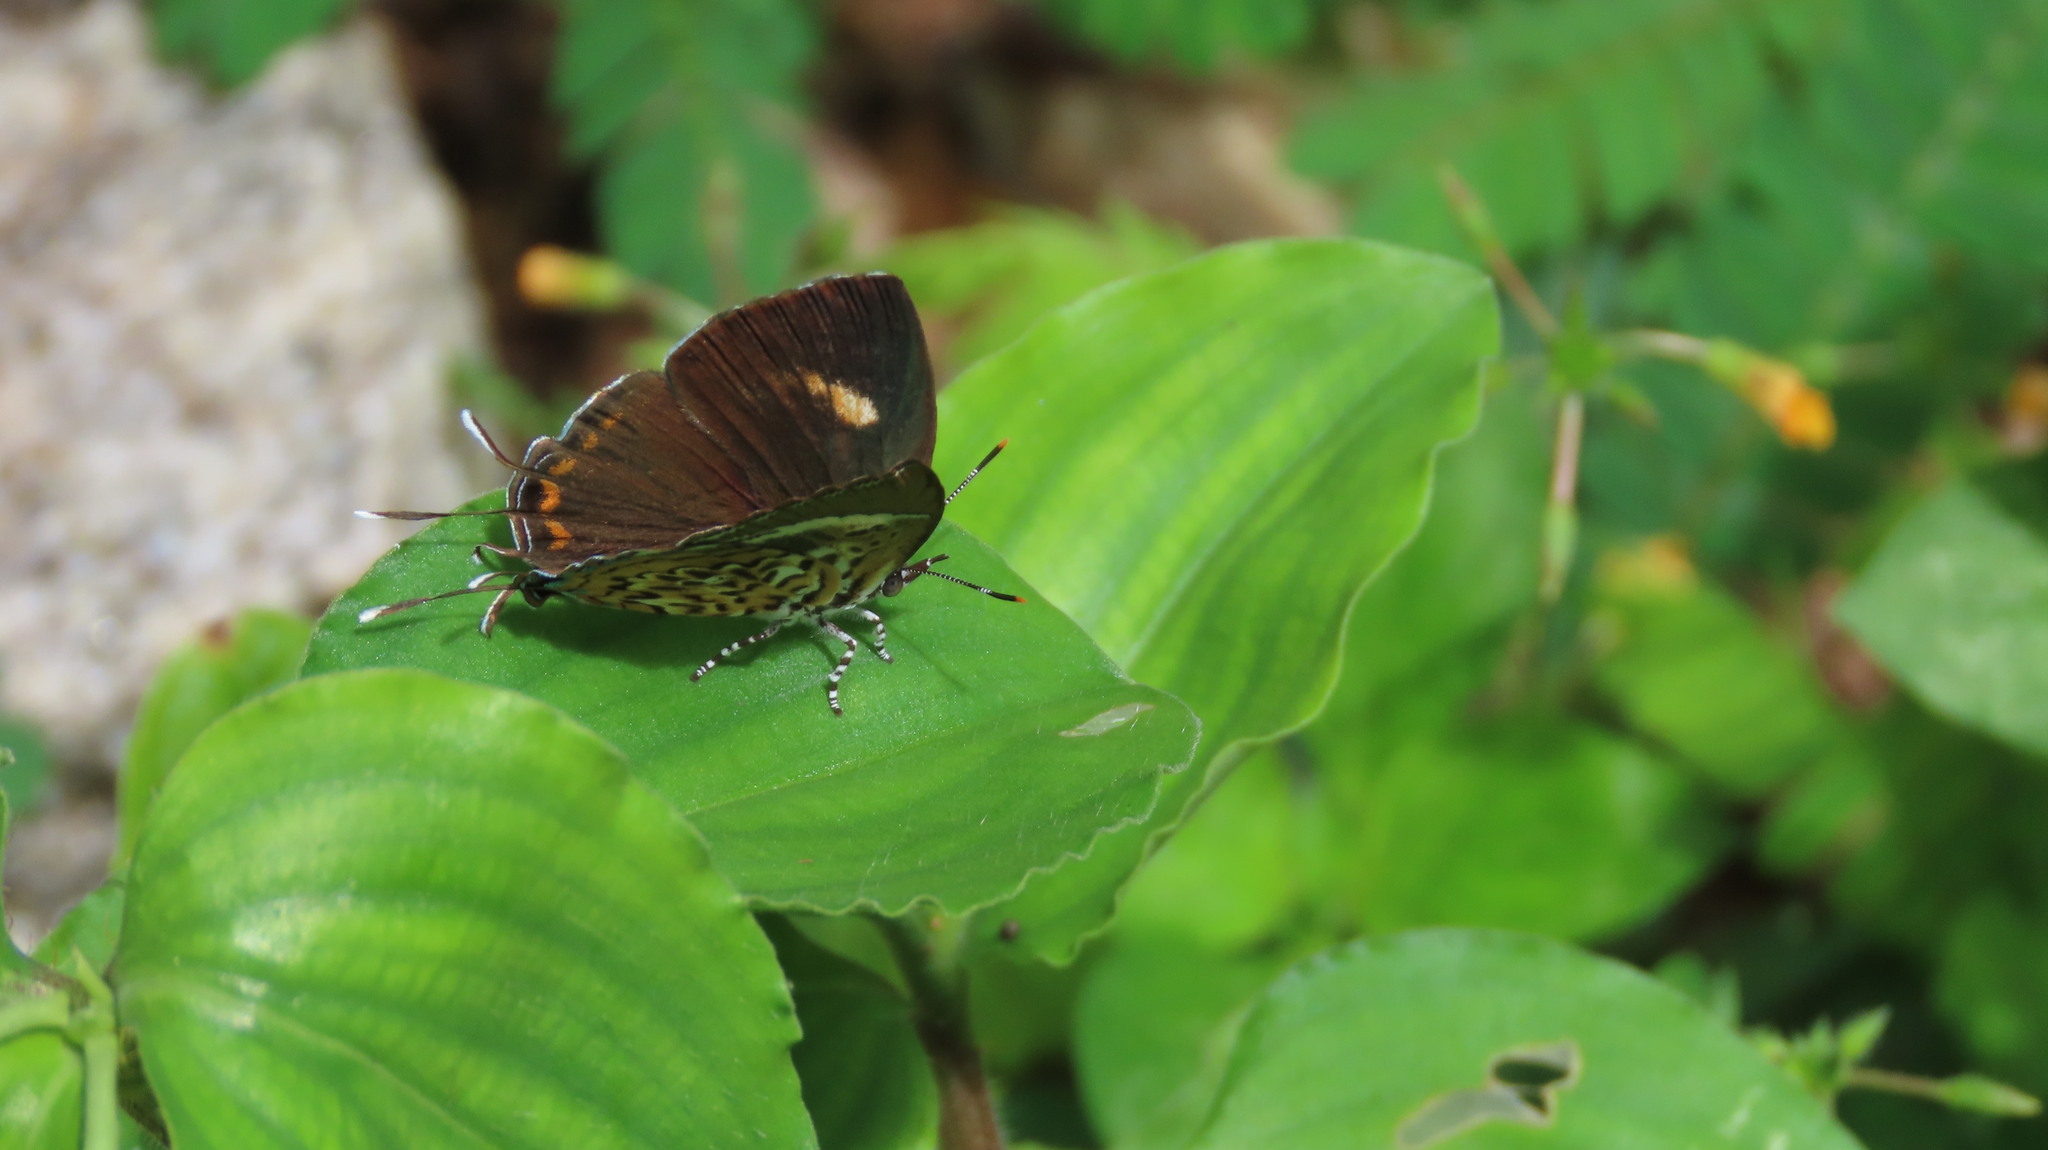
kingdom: Animalia
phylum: Arthropoda
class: Insecta
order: Lepidoptera
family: Lycaenidae
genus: Rathinda
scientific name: Rathinda amor
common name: Monkey puzzle
